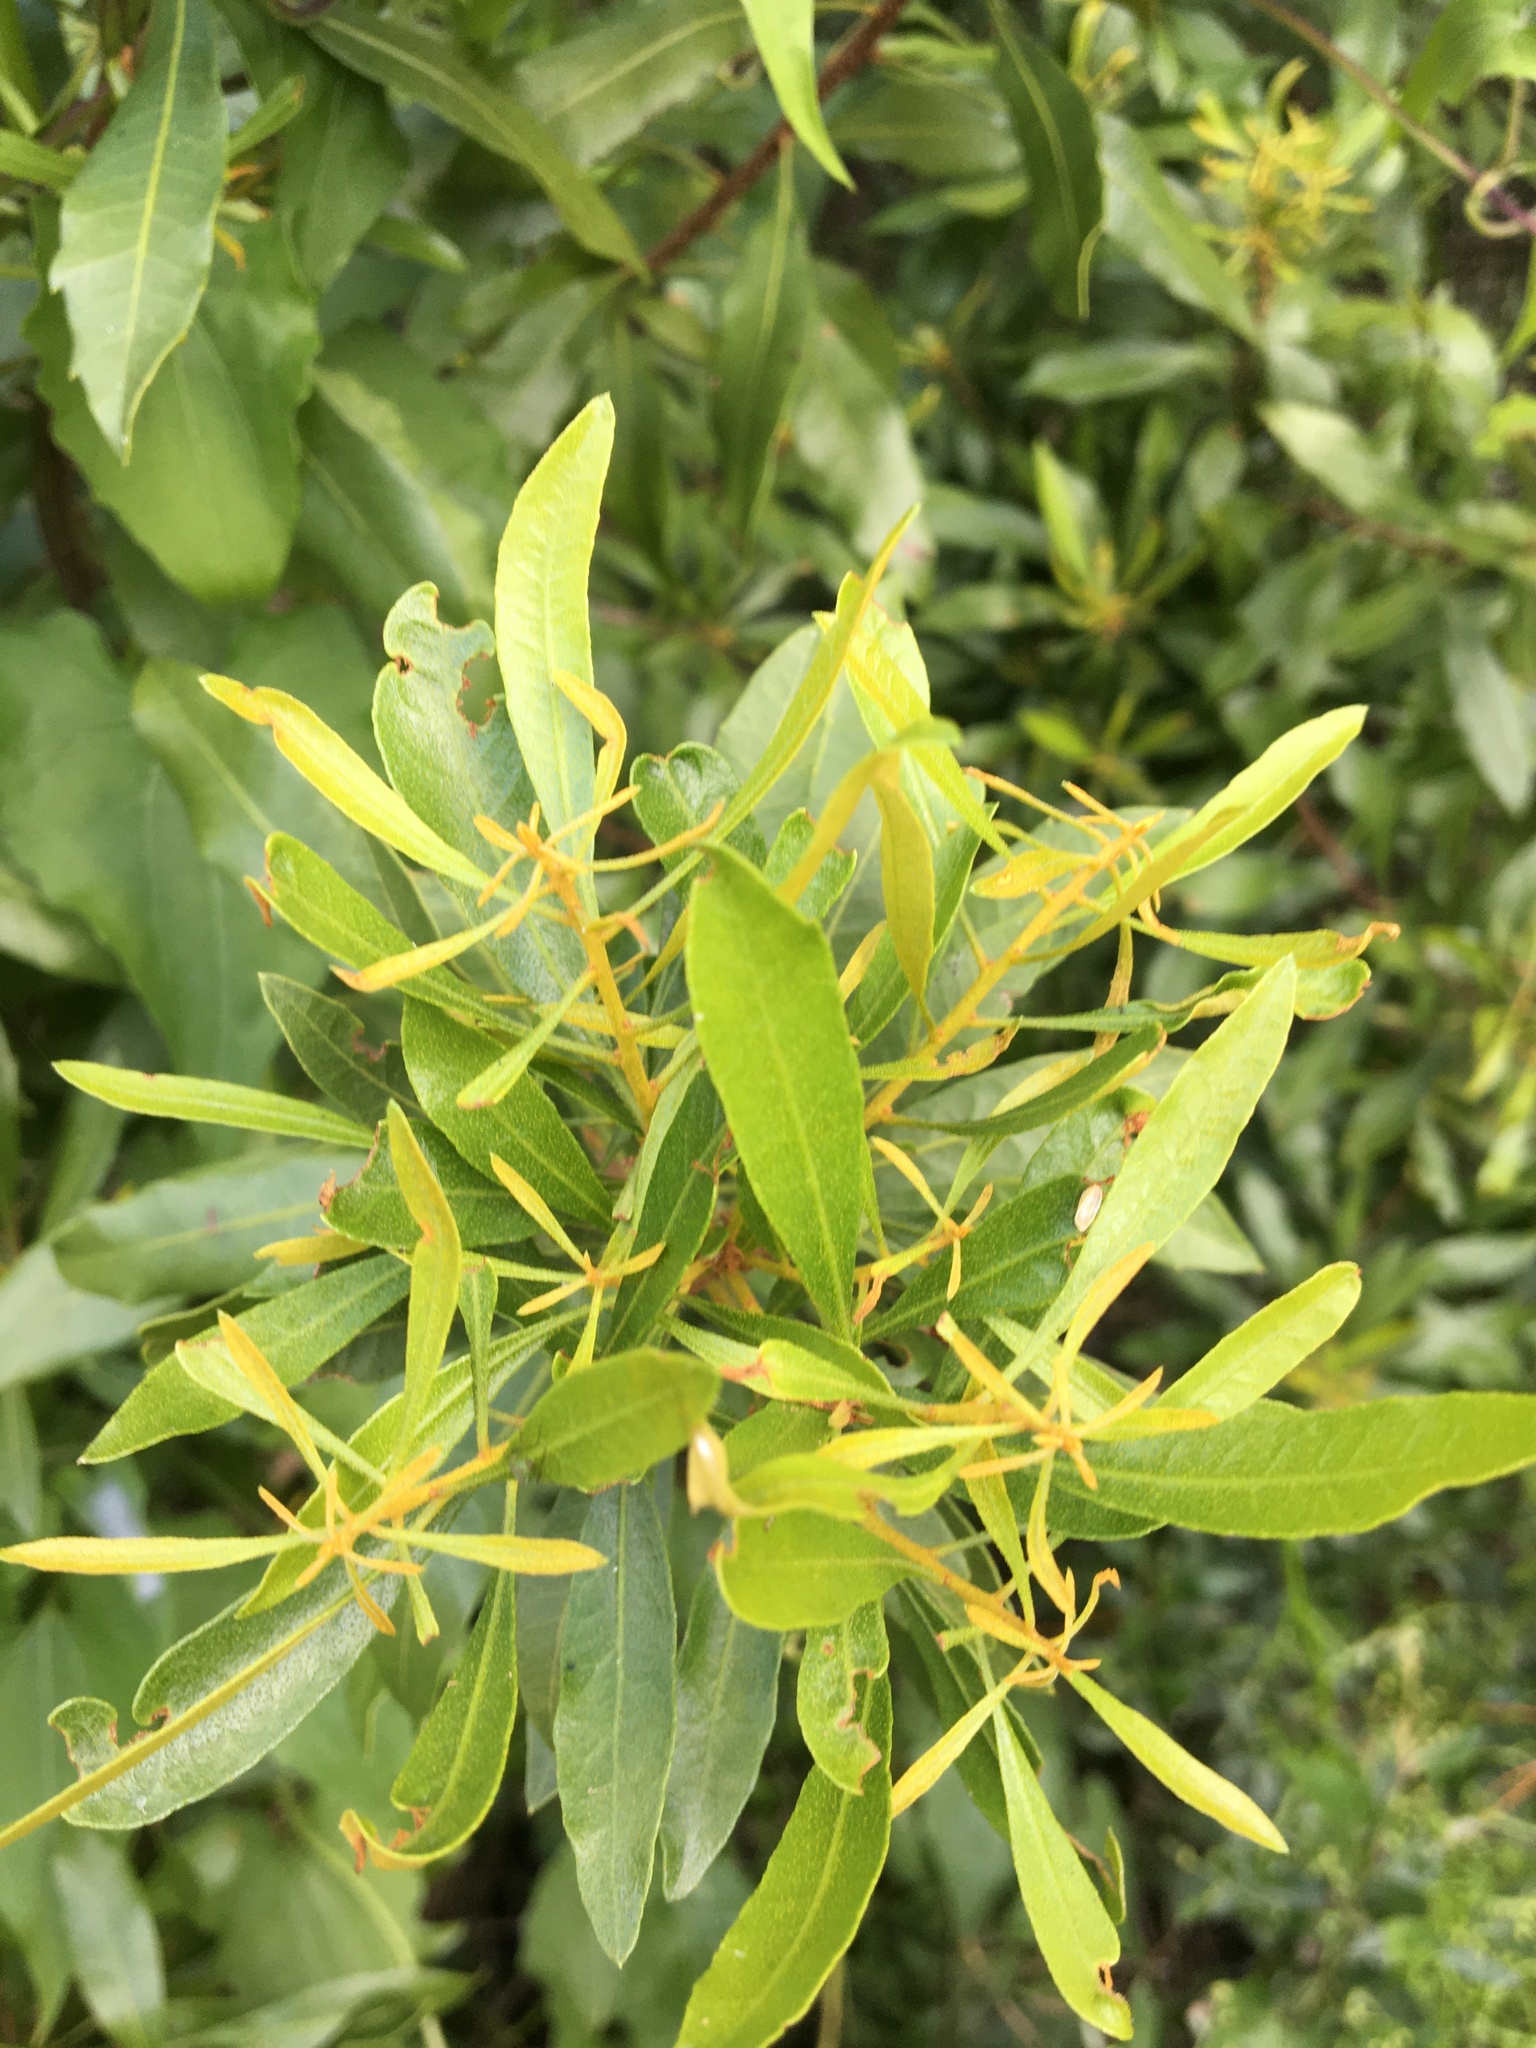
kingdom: Plantae
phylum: Tracheophyta
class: Magnoliopsida
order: Fagales
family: Myricaceae
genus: Morella
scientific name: Morella cerifera
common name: Wax myrtle
